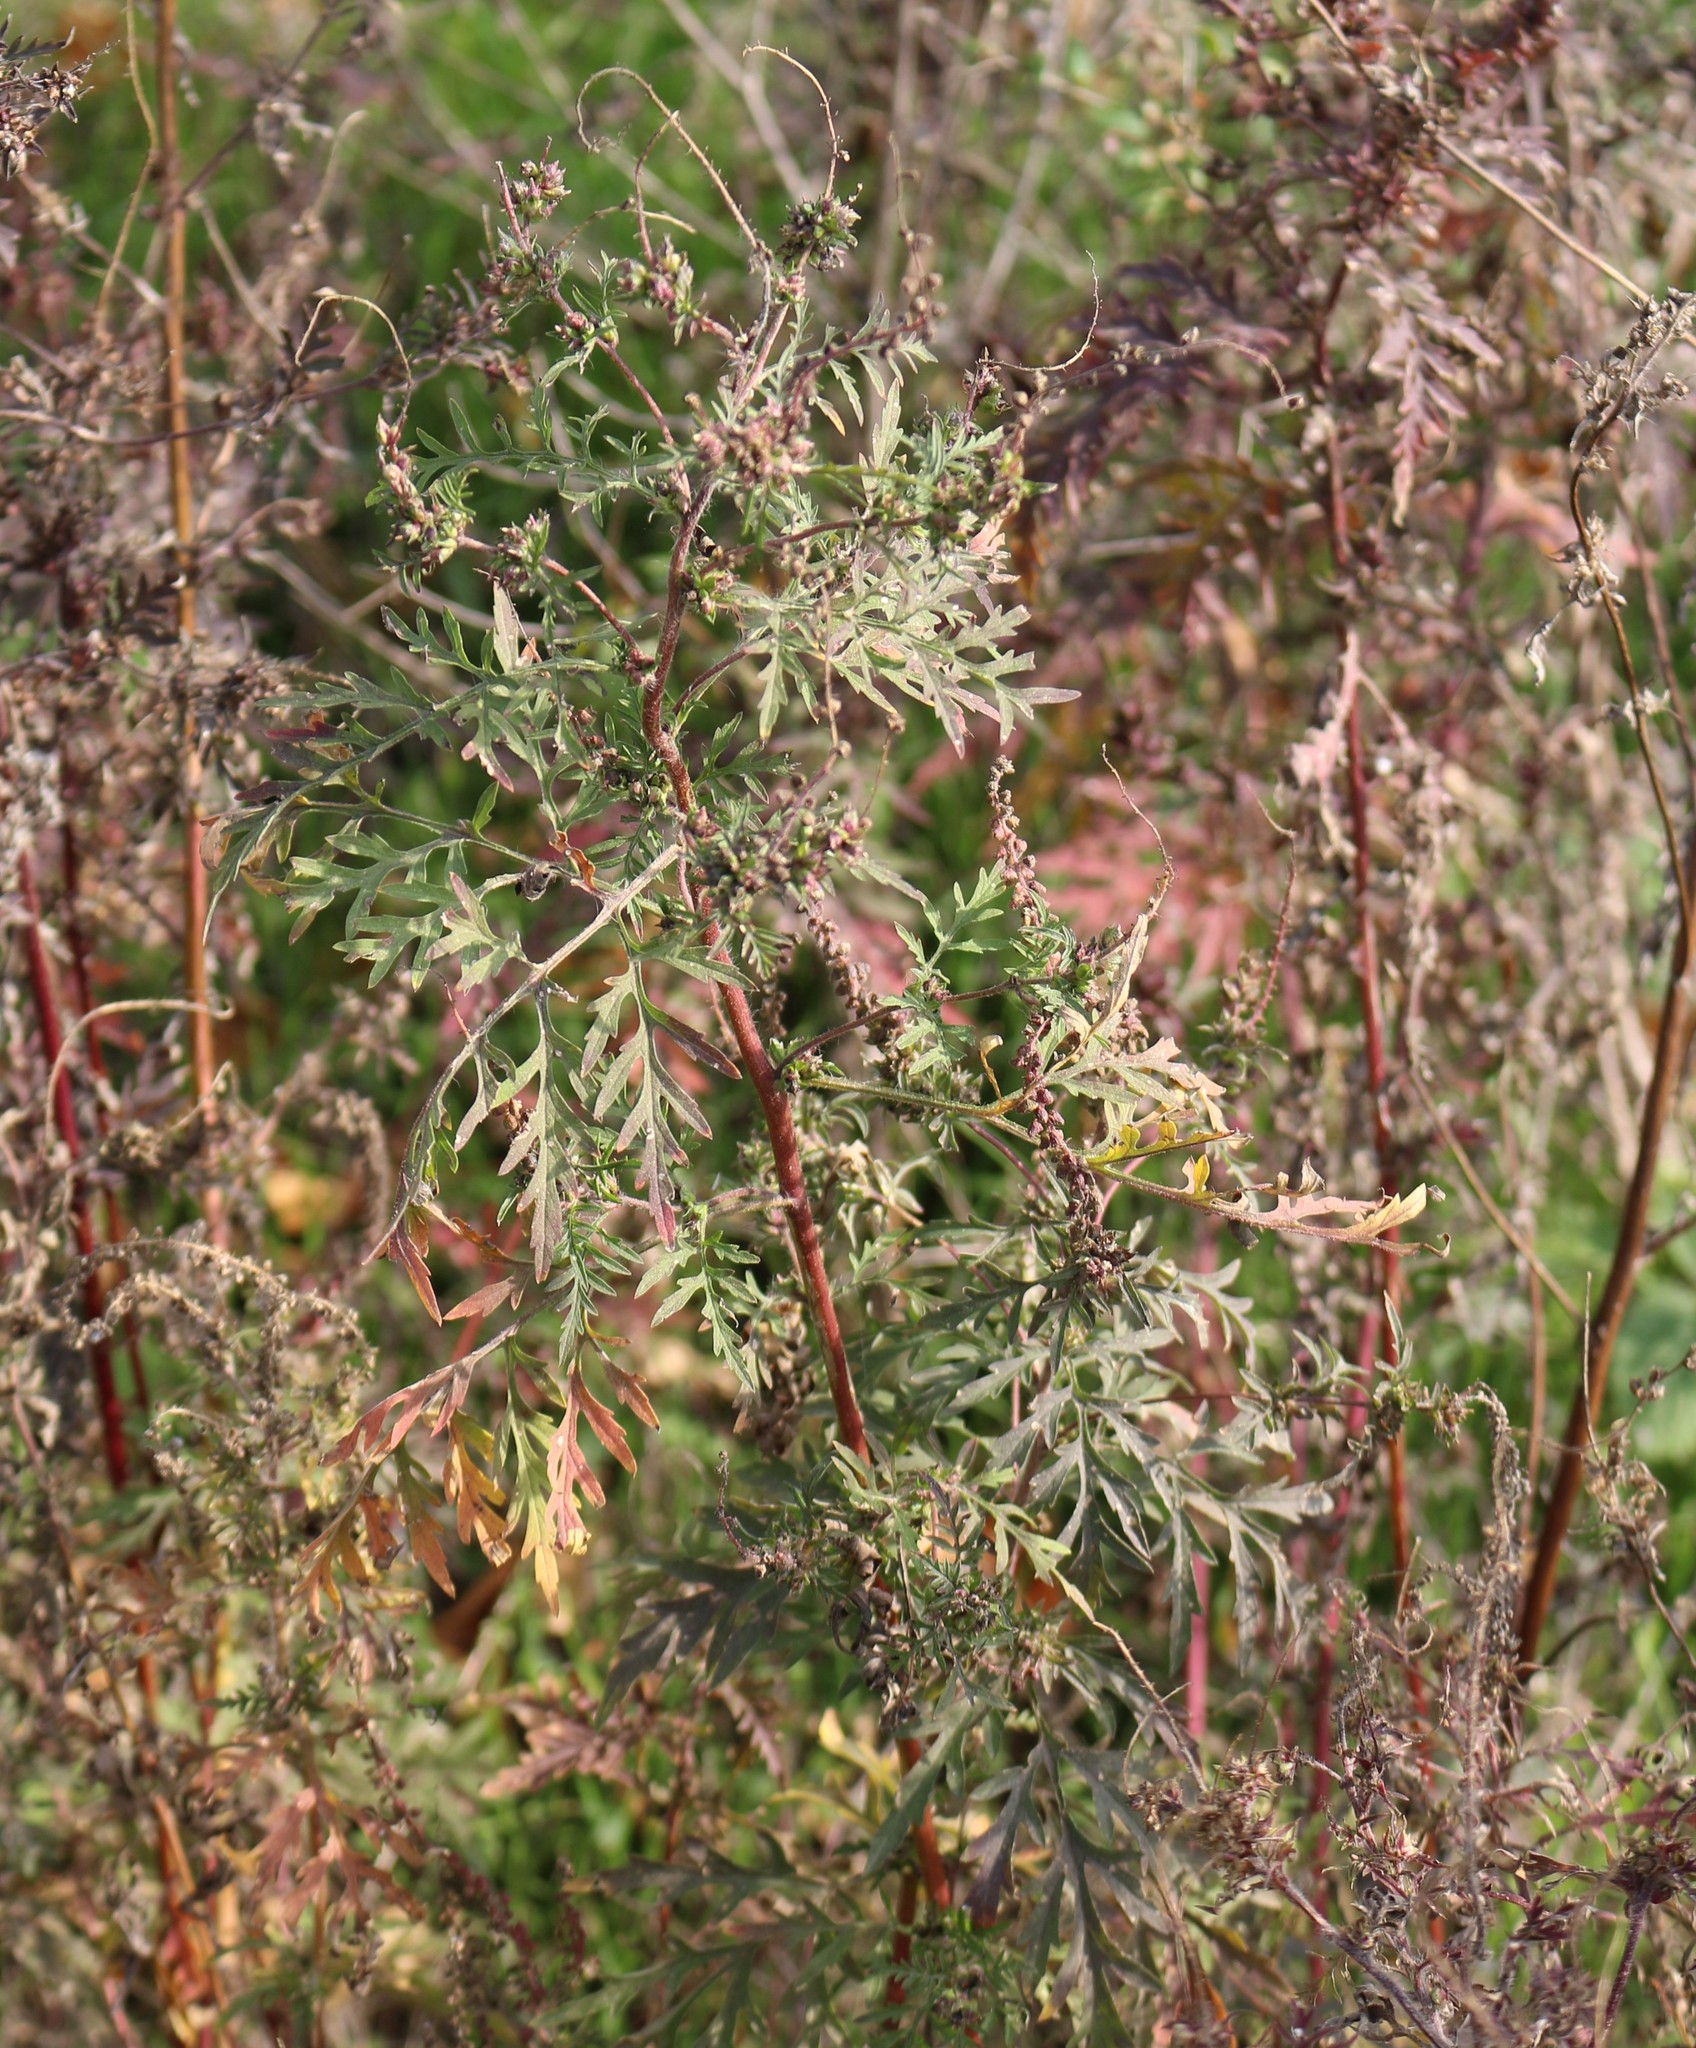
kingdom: Plantae
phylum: Tracheophyta
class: Magnoliopsida
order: Asterales
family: Asteraceae
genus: Ambrosia
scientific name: Ambrosia artemisiifolia
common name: Annual ragweed
